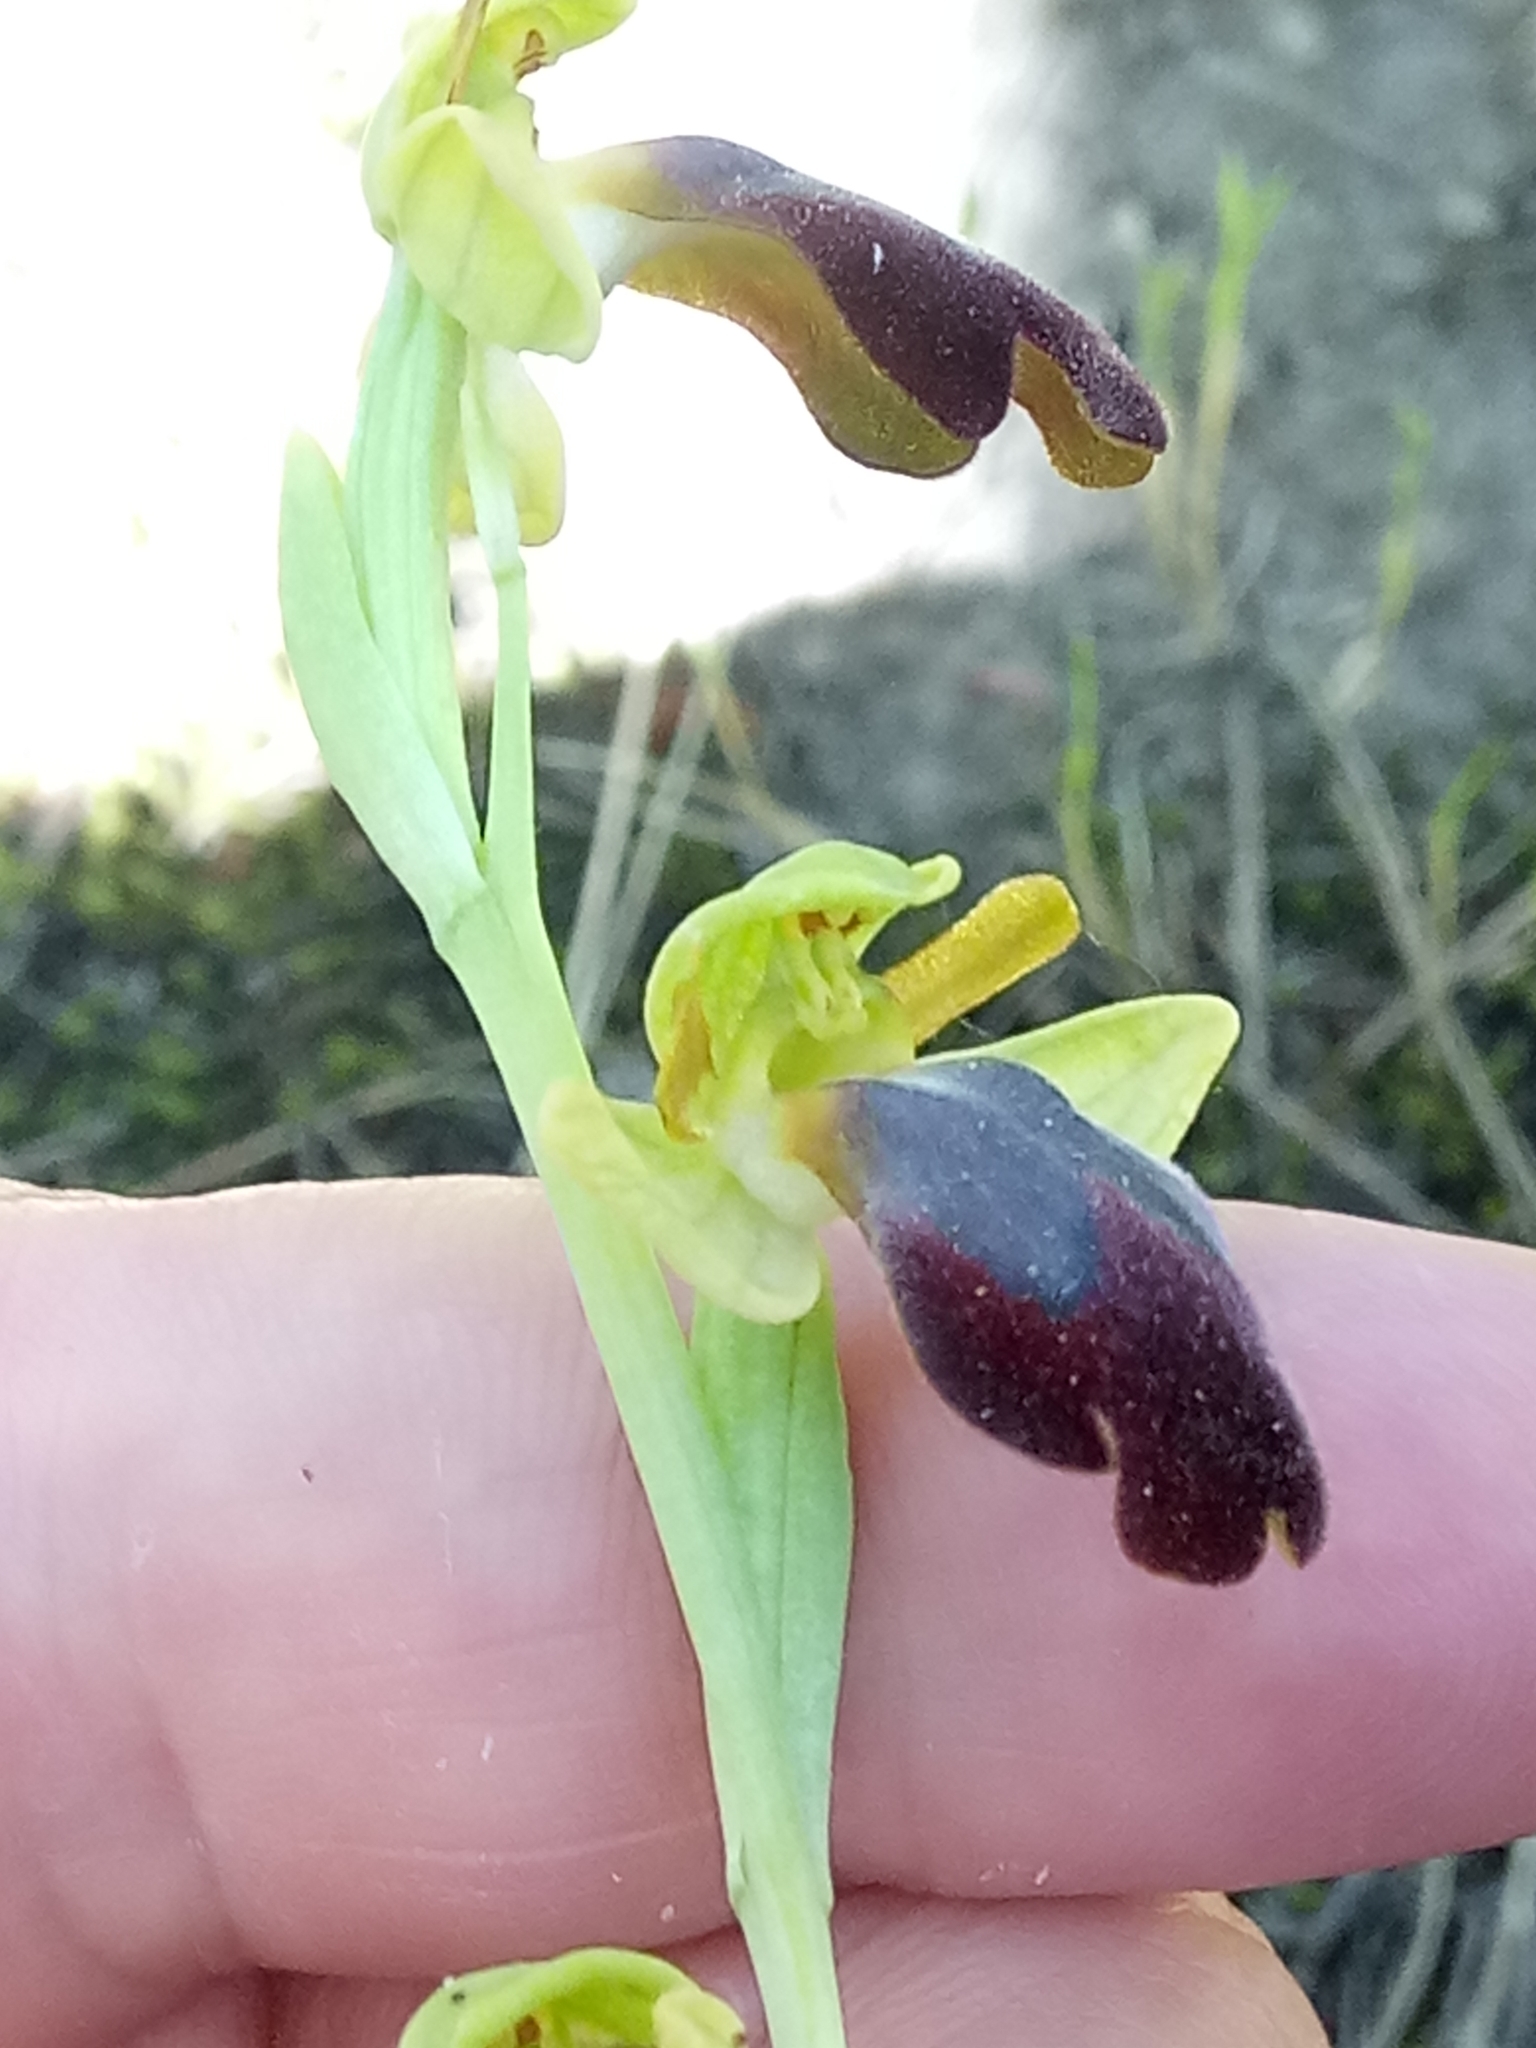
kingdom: Plantae
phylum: Tracheophyta
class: Liliopsida
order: Asparagales
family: Orchidaceae
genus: Ophrys
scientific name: Ophrys fusca
